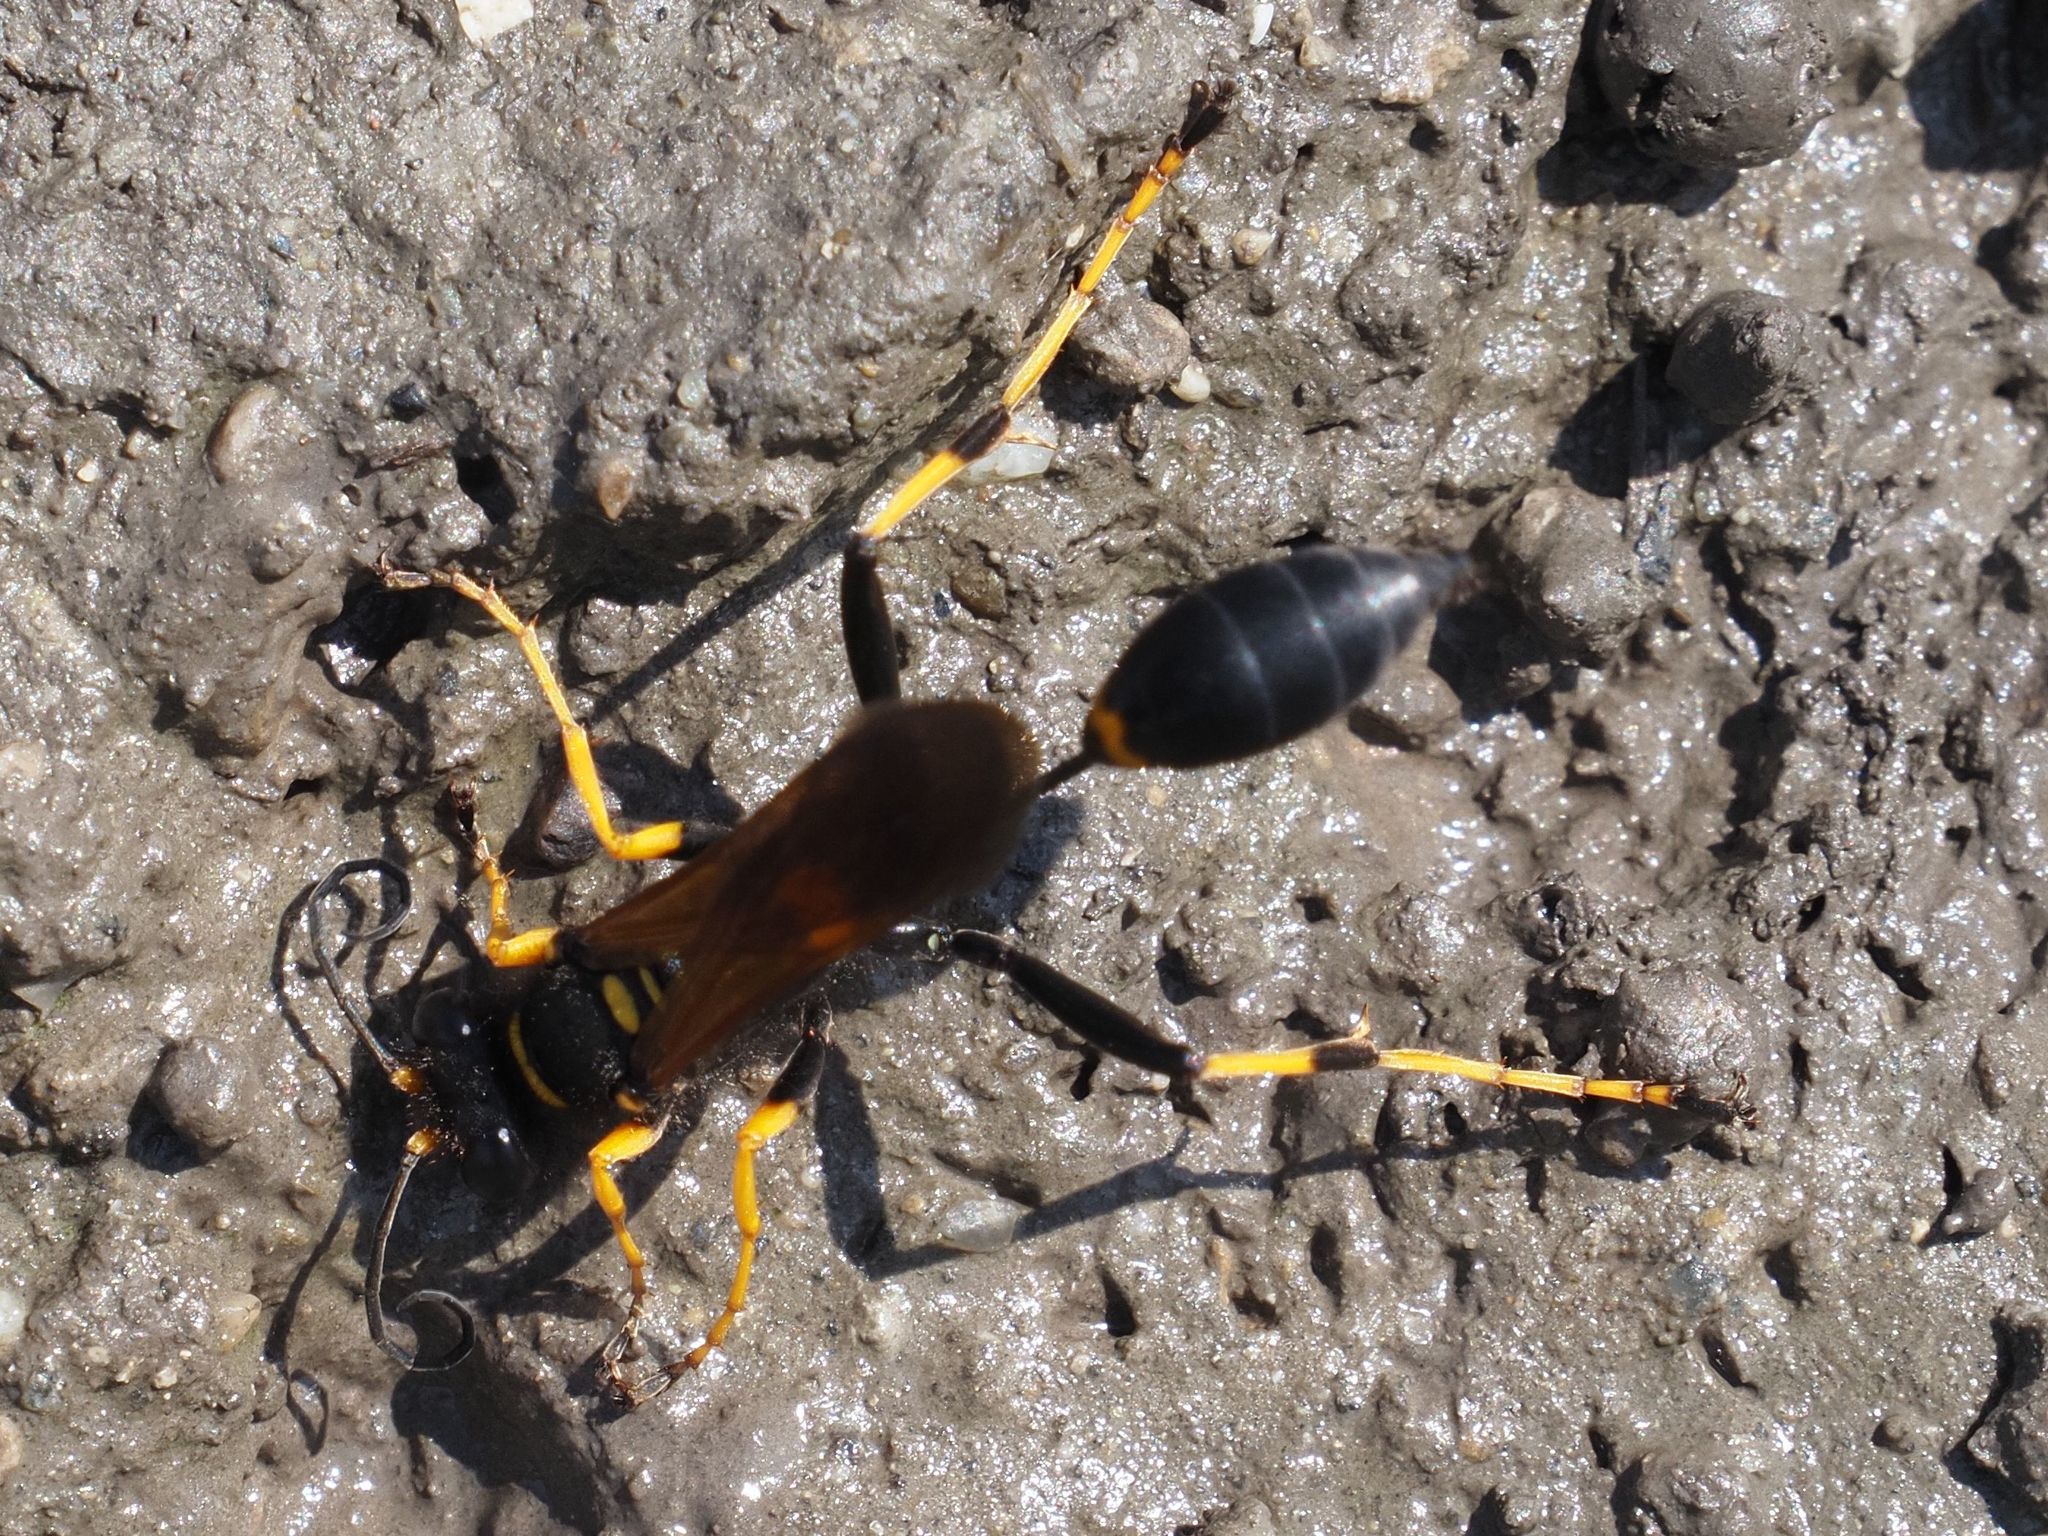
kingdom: Animalia
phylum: Arthropoda
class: Insecta
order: Hymenoptera
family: Sphecidae
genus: Sceliphron
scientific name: Sceliphron caementarium
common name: Mud dauber
